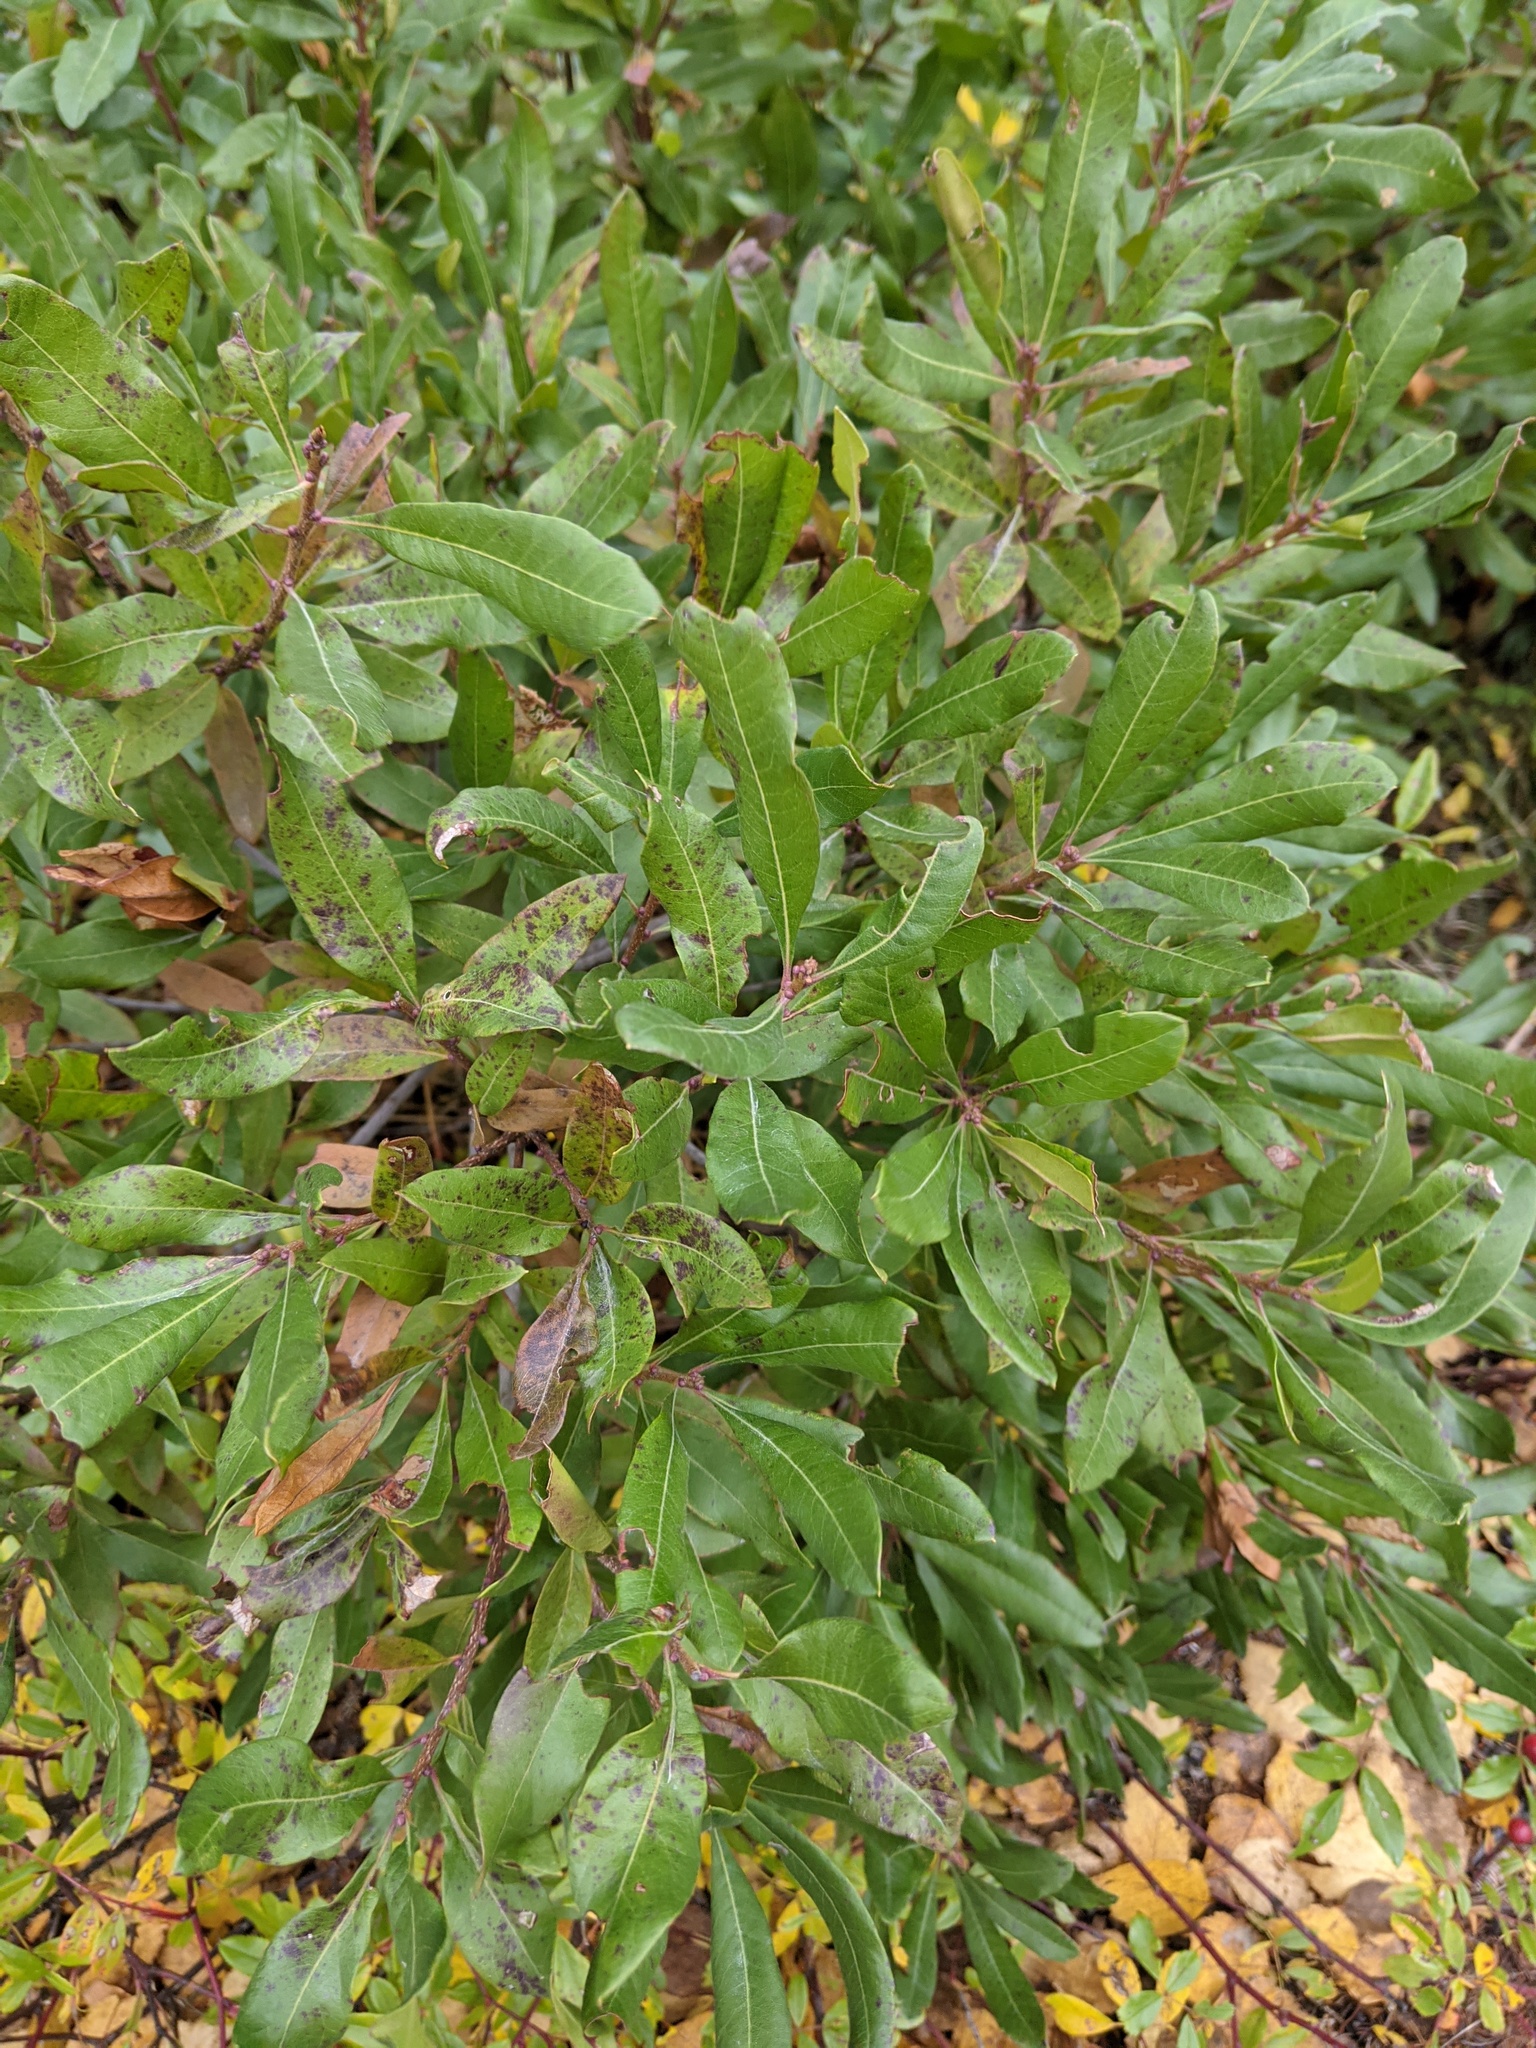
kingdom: Plantae
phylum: Tracheophyta
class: Magnoliopsida
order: Fagales
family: Myricaceae
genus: Morella
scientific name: Morella pensylvanica
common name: Northern bayberry
